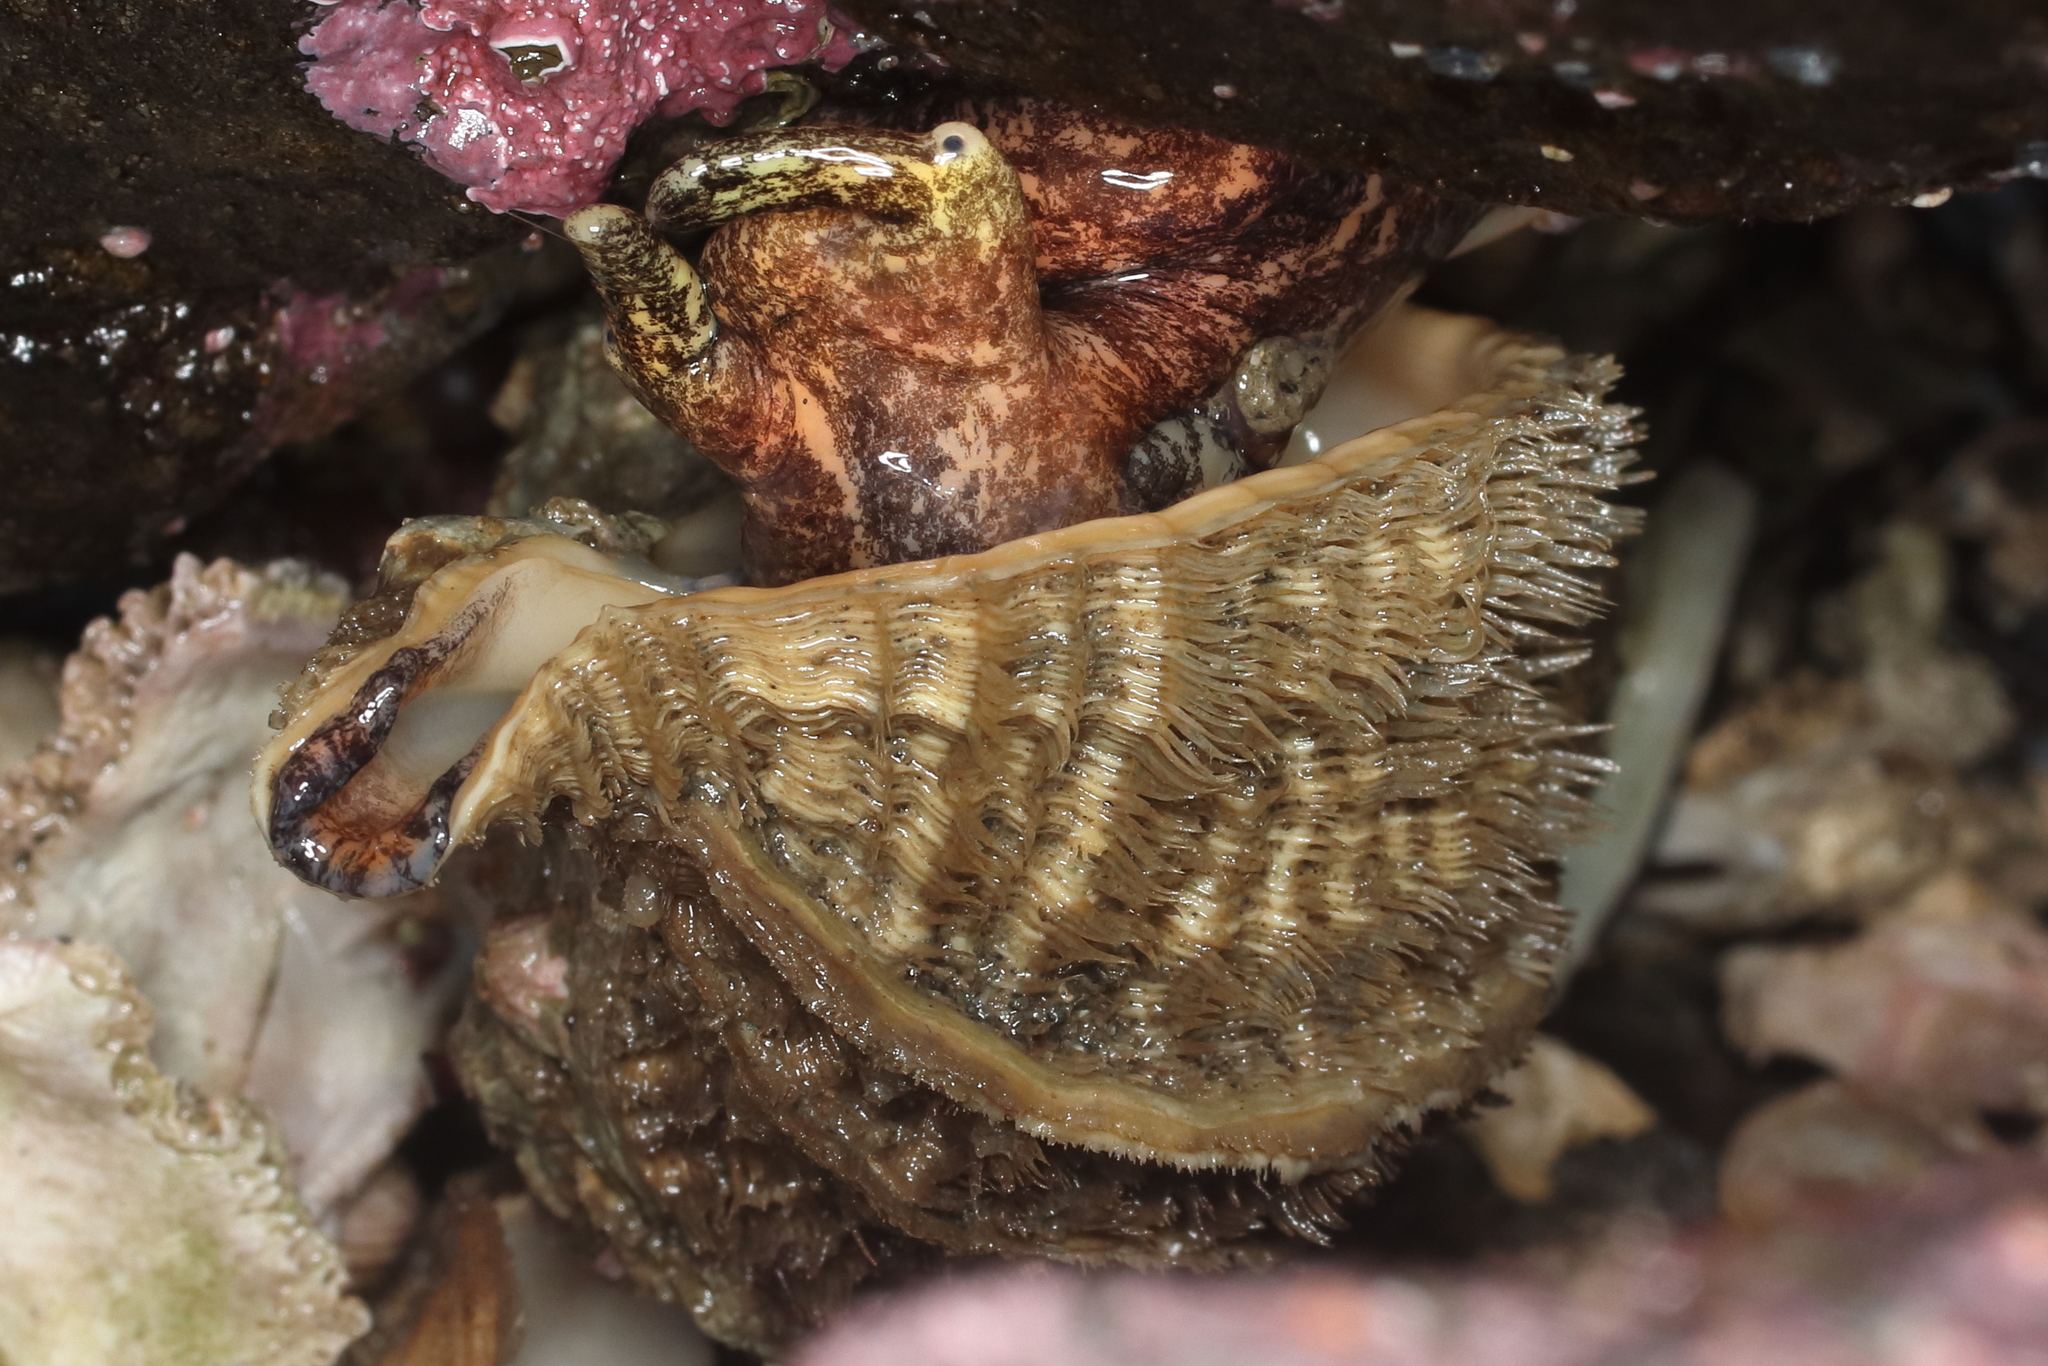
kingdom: Animalia
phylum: Mollusca
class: Gastropoda
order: Littorinimorpha
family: Cymatiidae
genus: Fusitriton
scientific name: Fusitriton oregonensis
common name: Oregon hairy triton
